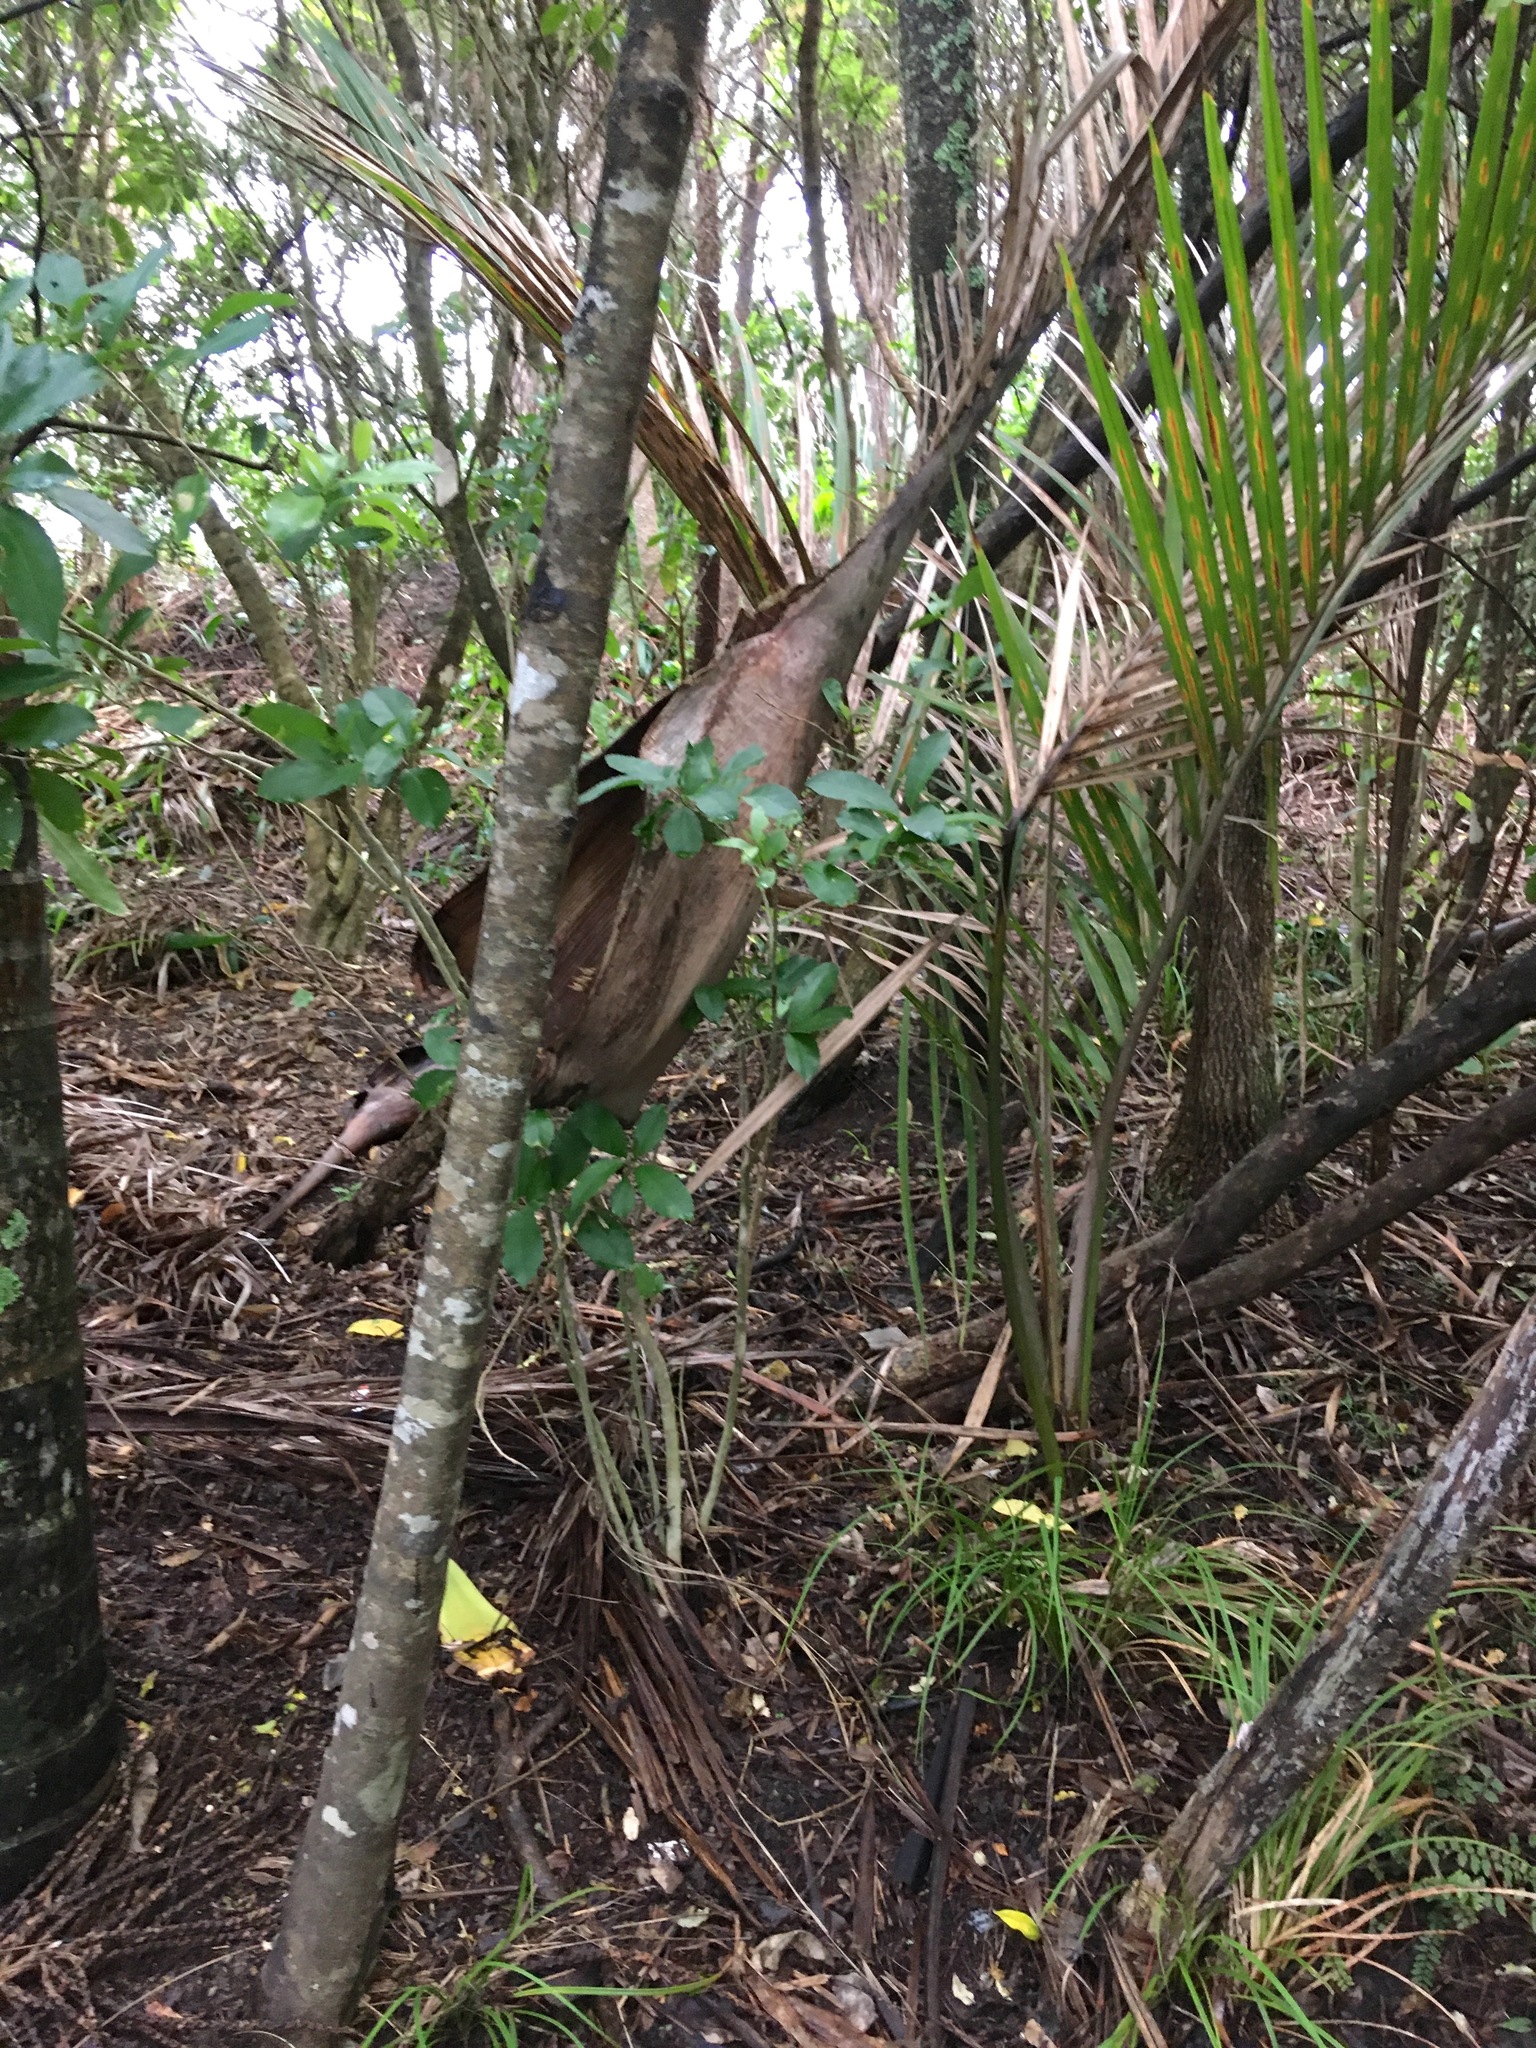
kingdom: Plantae
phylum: Tracheophyta
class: Magnoliopsida
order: Malpighiales
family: Violaceae
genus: Melicytus
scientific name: Melicytus ramiflorus
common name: Mahoe
